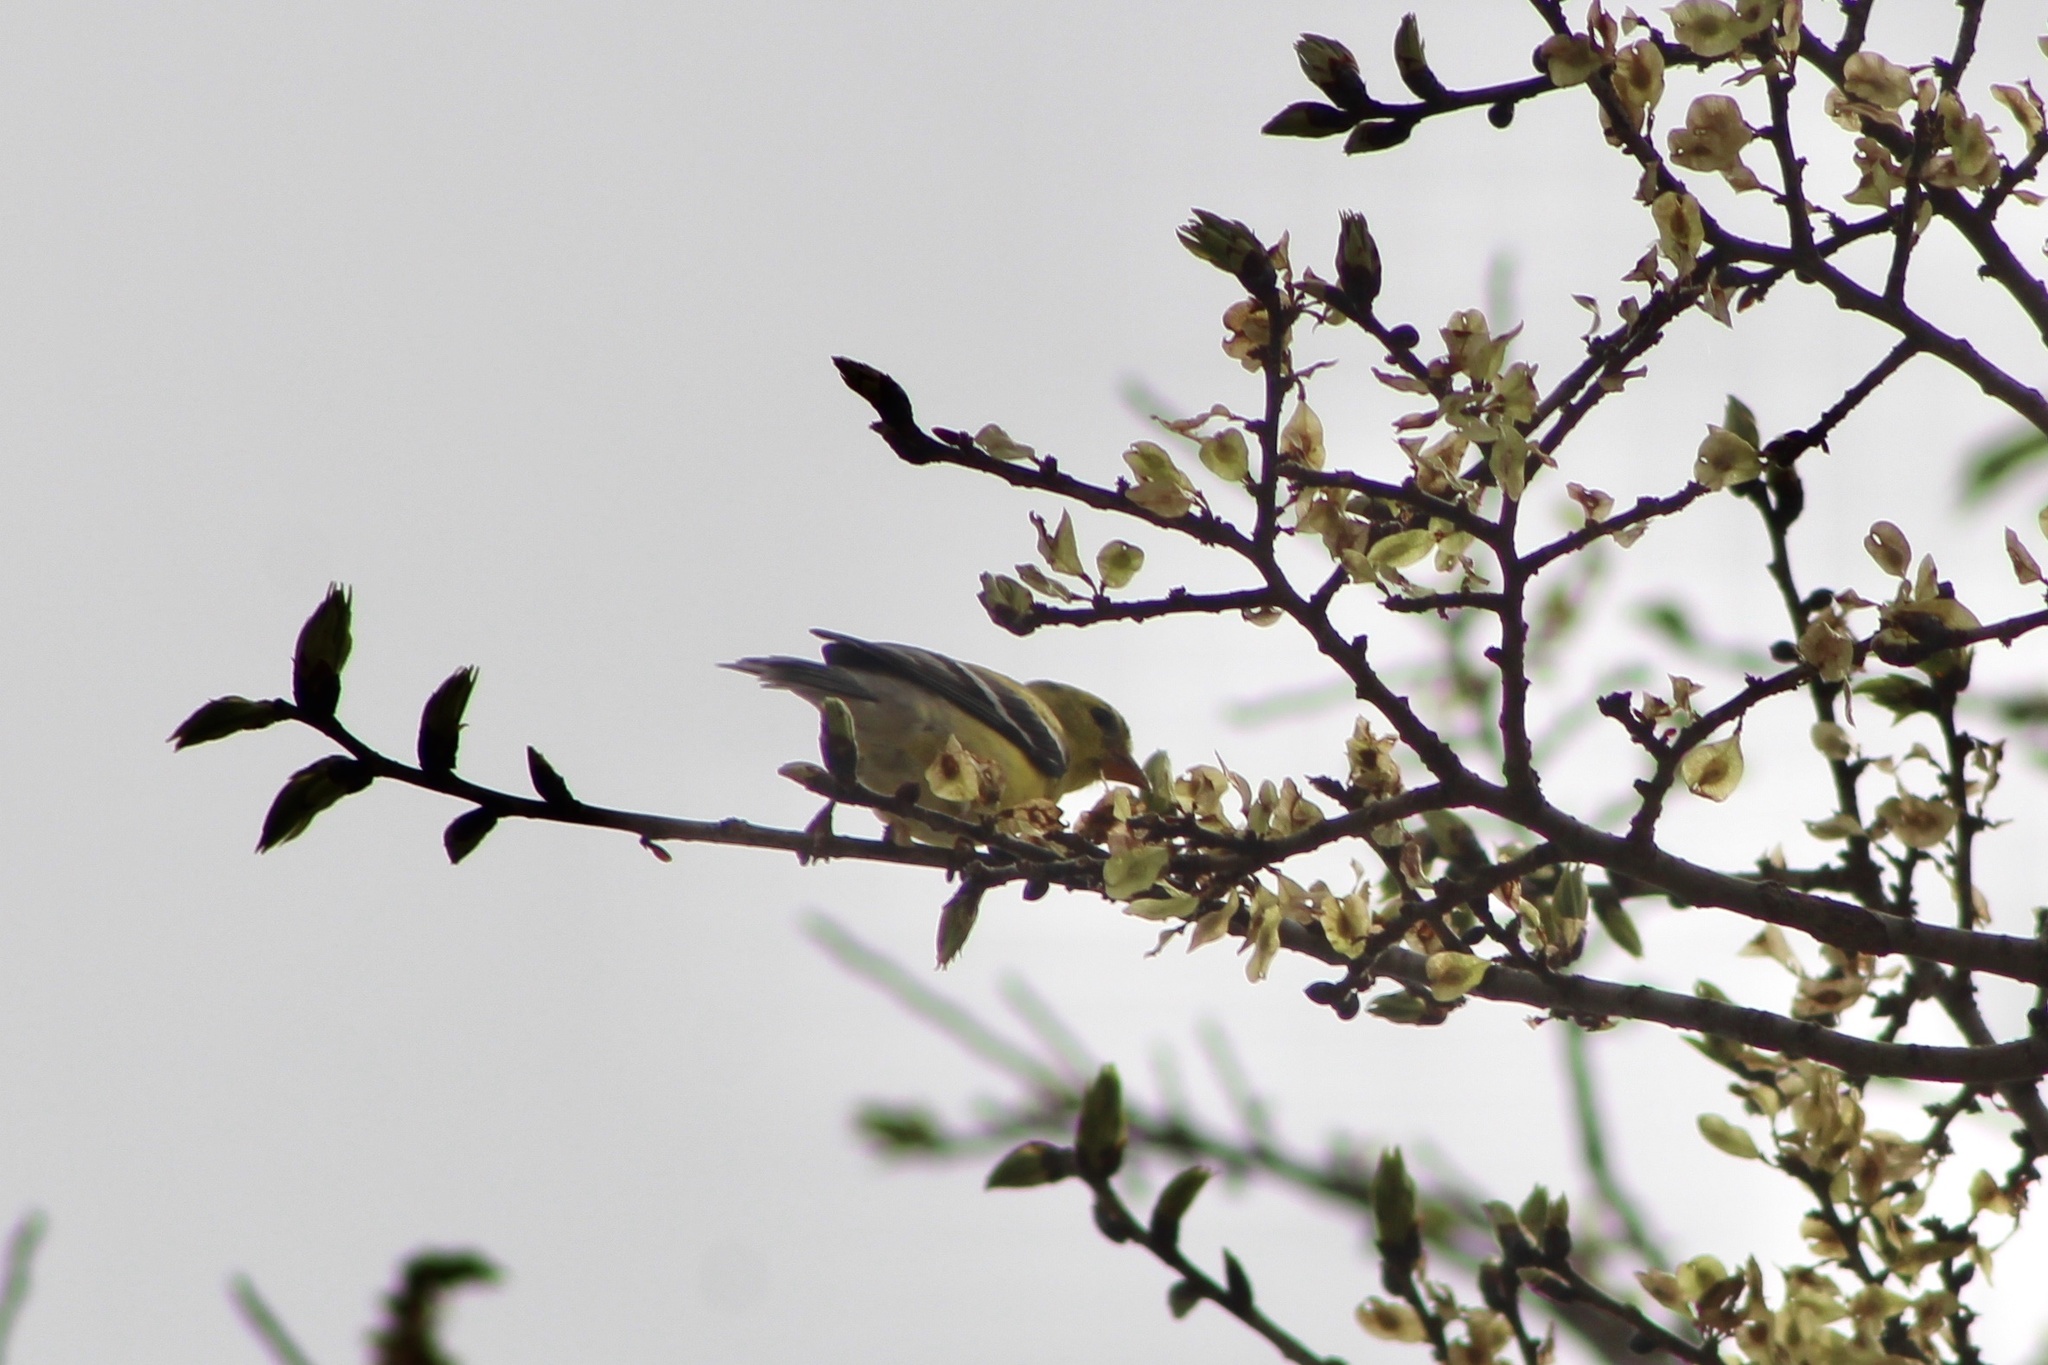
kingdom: Animalia
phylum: Chordata
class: Aves
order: Passeriformes
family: Fringillidae
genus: Spinus
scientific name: Spinus tristis
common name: American goldfinch
